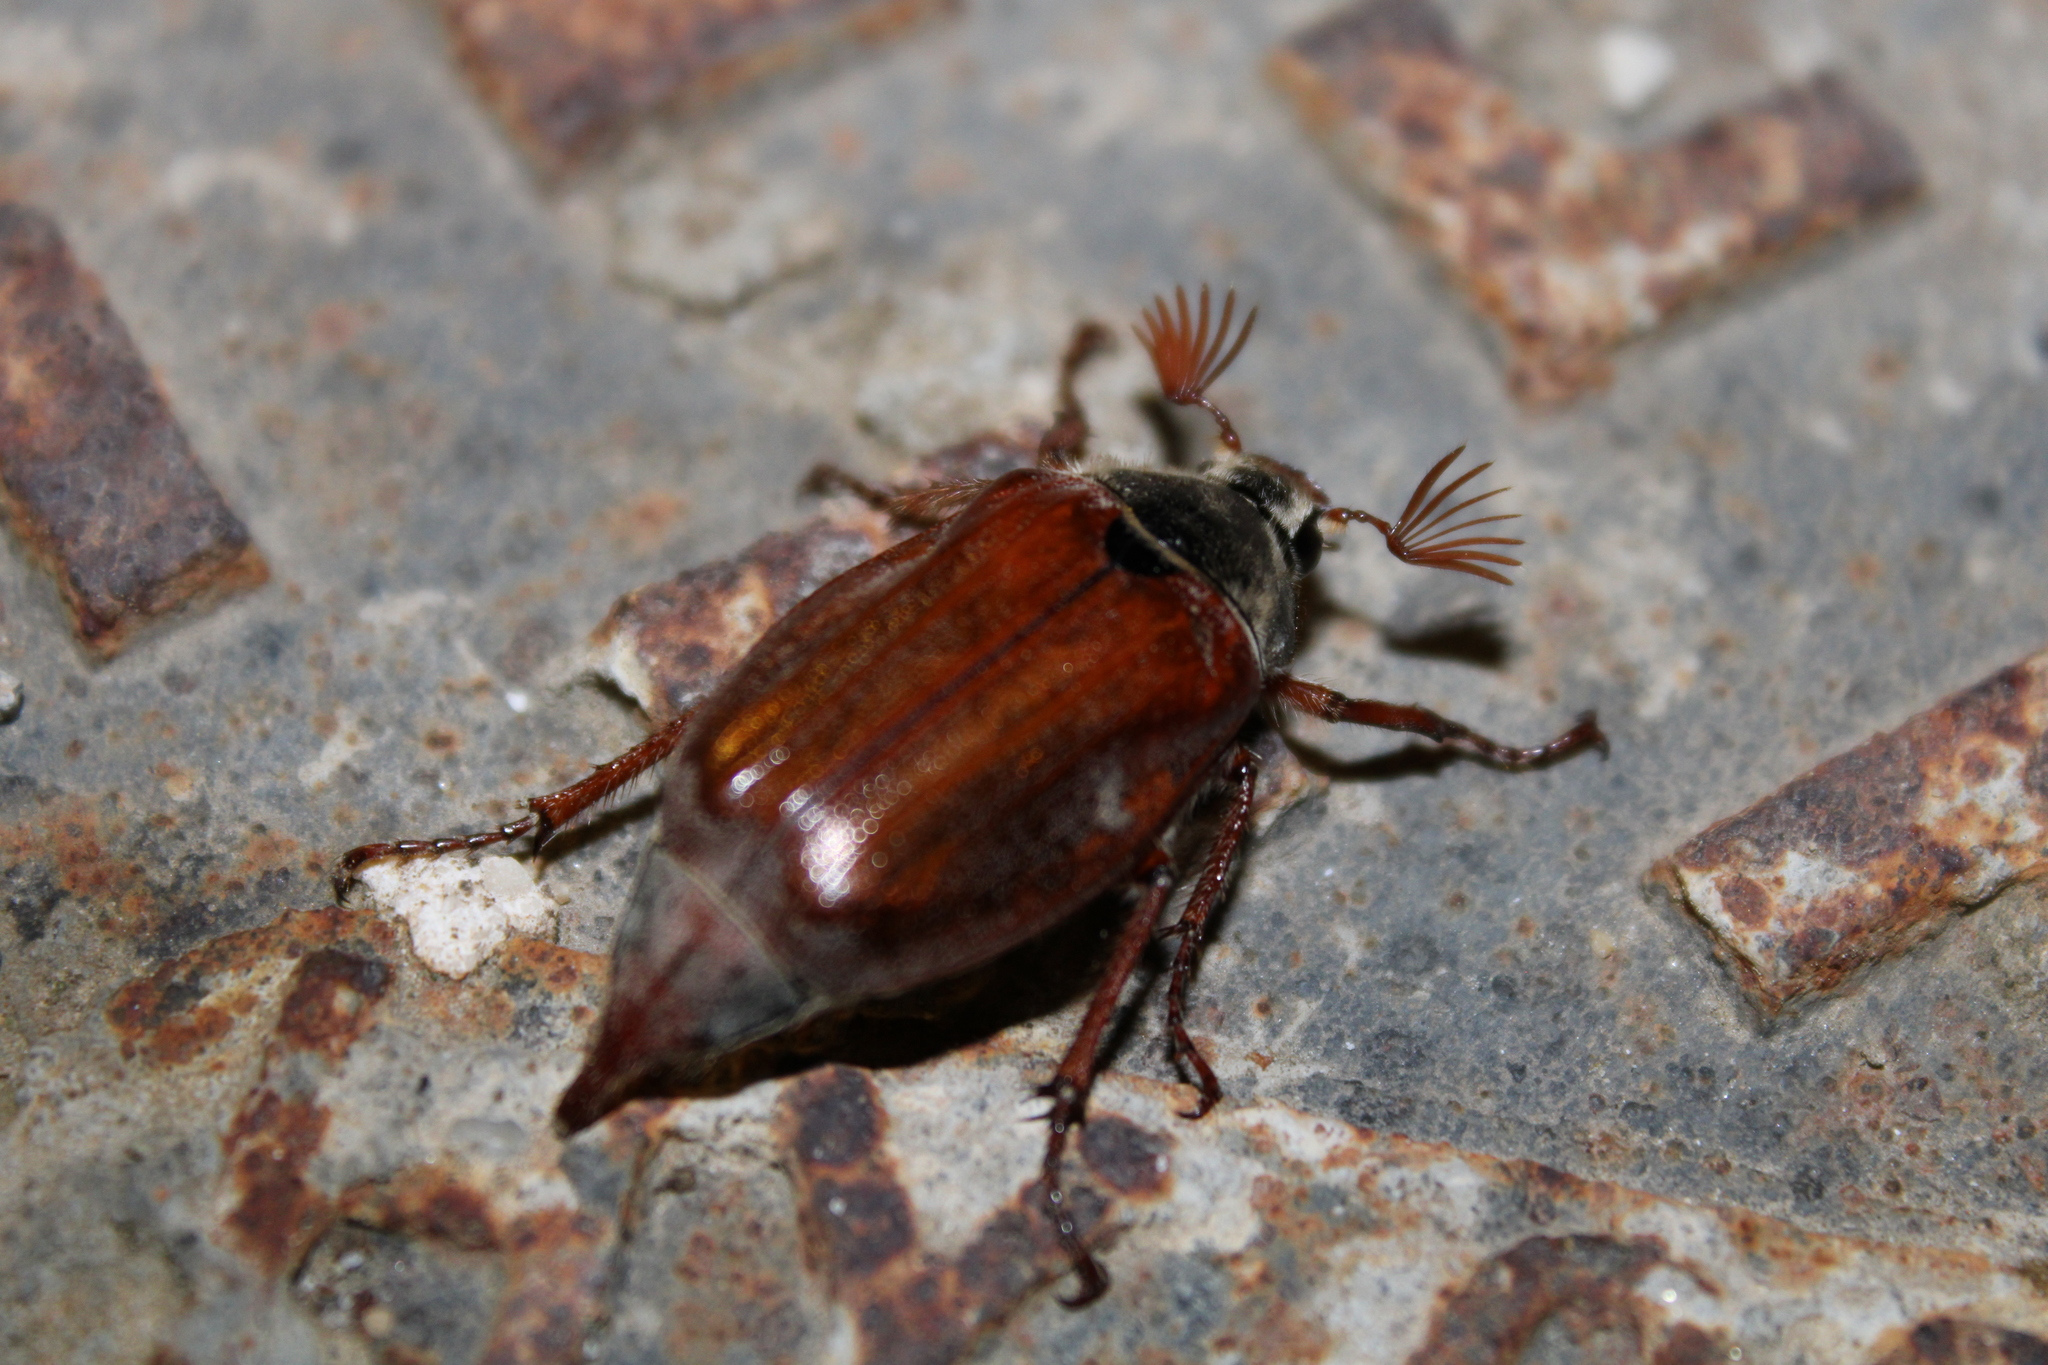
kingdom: Animalia
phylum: Arthropoda
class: Insecta
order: Coleoptera
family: Scarabaeidae
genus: Melolontha
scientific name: Melolontha melolontha
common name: Cockchafer maybeetle
